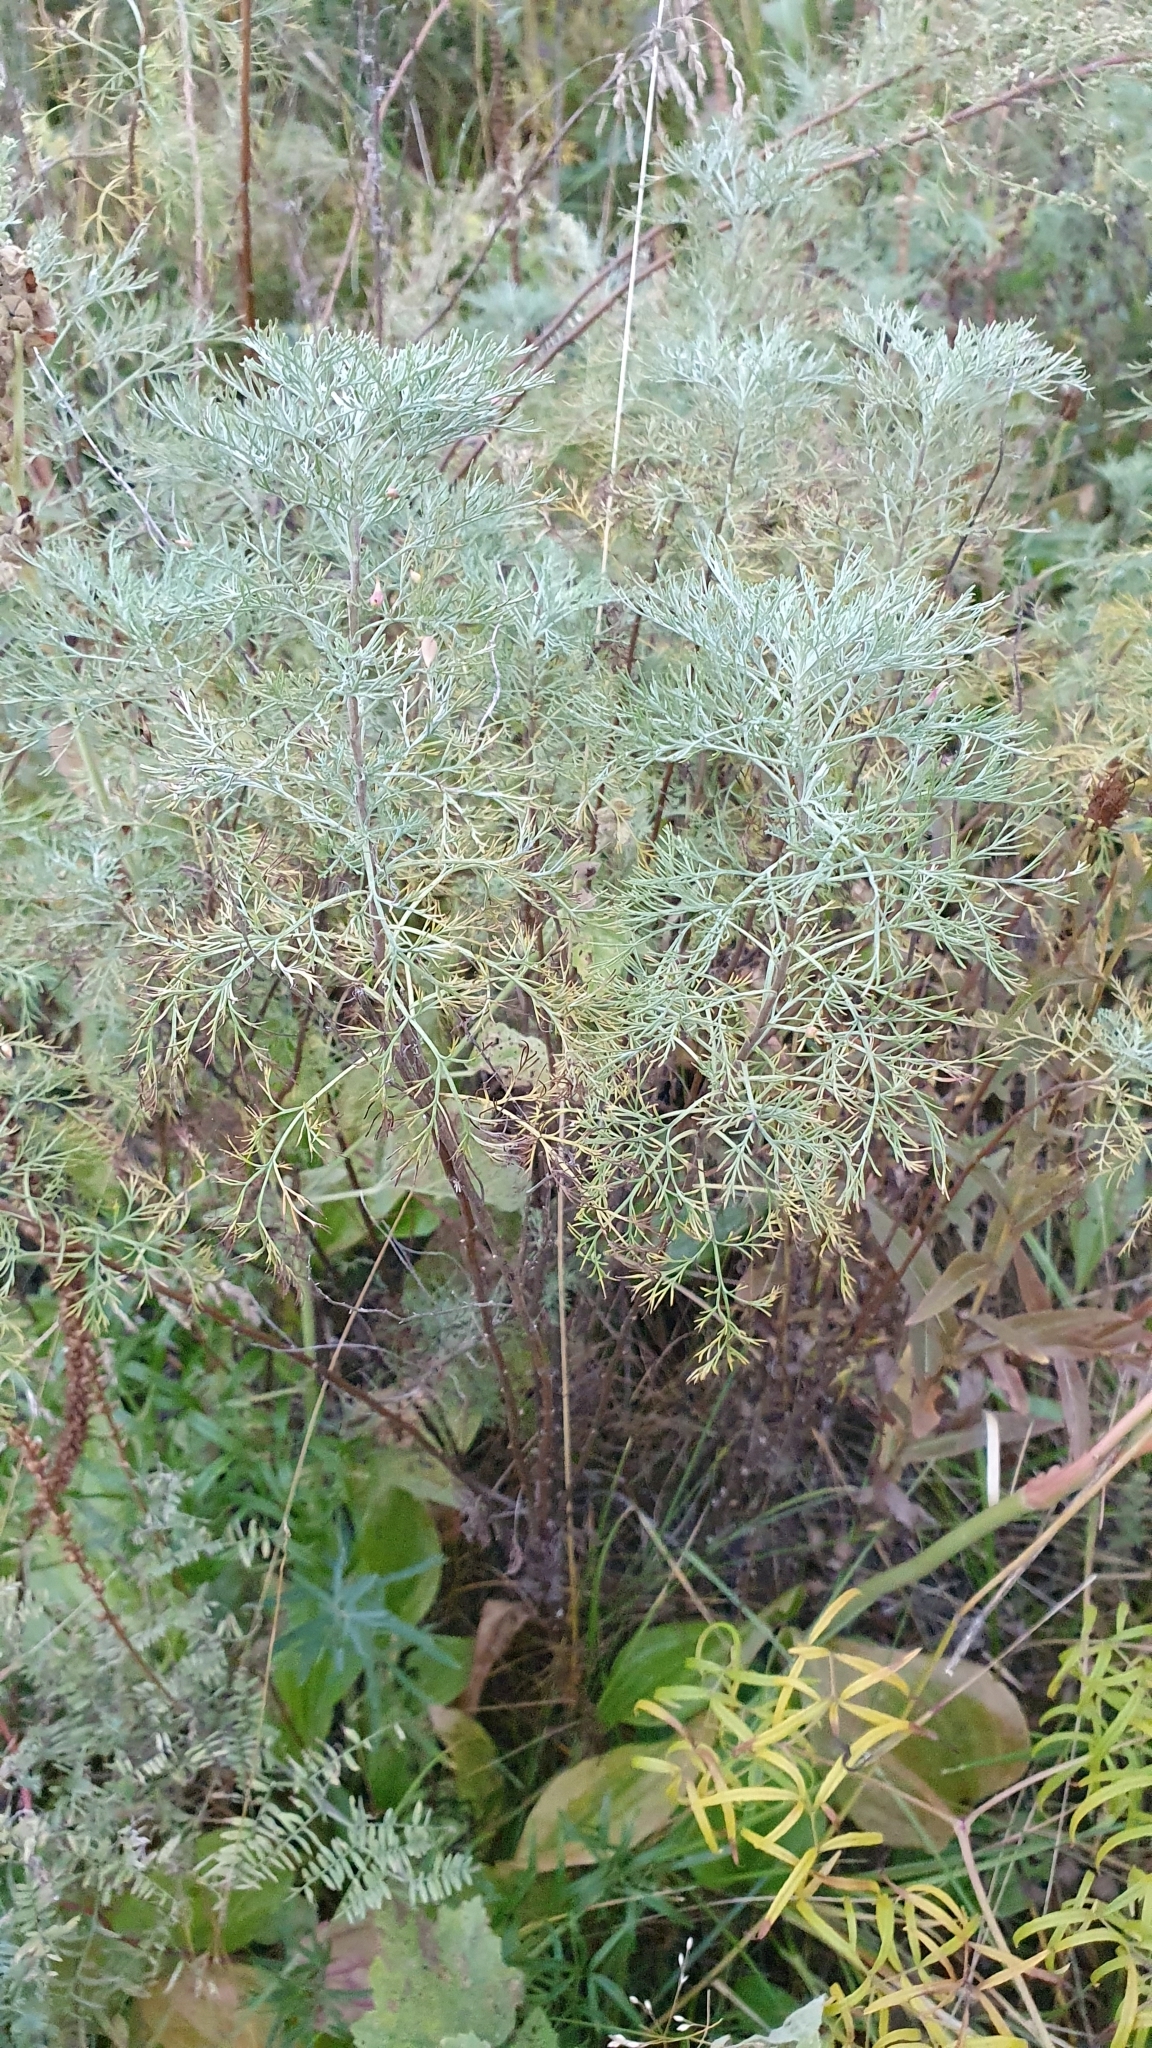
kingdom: Plantae
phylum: Tracheophyta
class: Magnoliopsida
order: Asterales
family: Asteraceae
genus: Artemisia
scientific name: Artemisia abrotanum
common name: Southernwood
